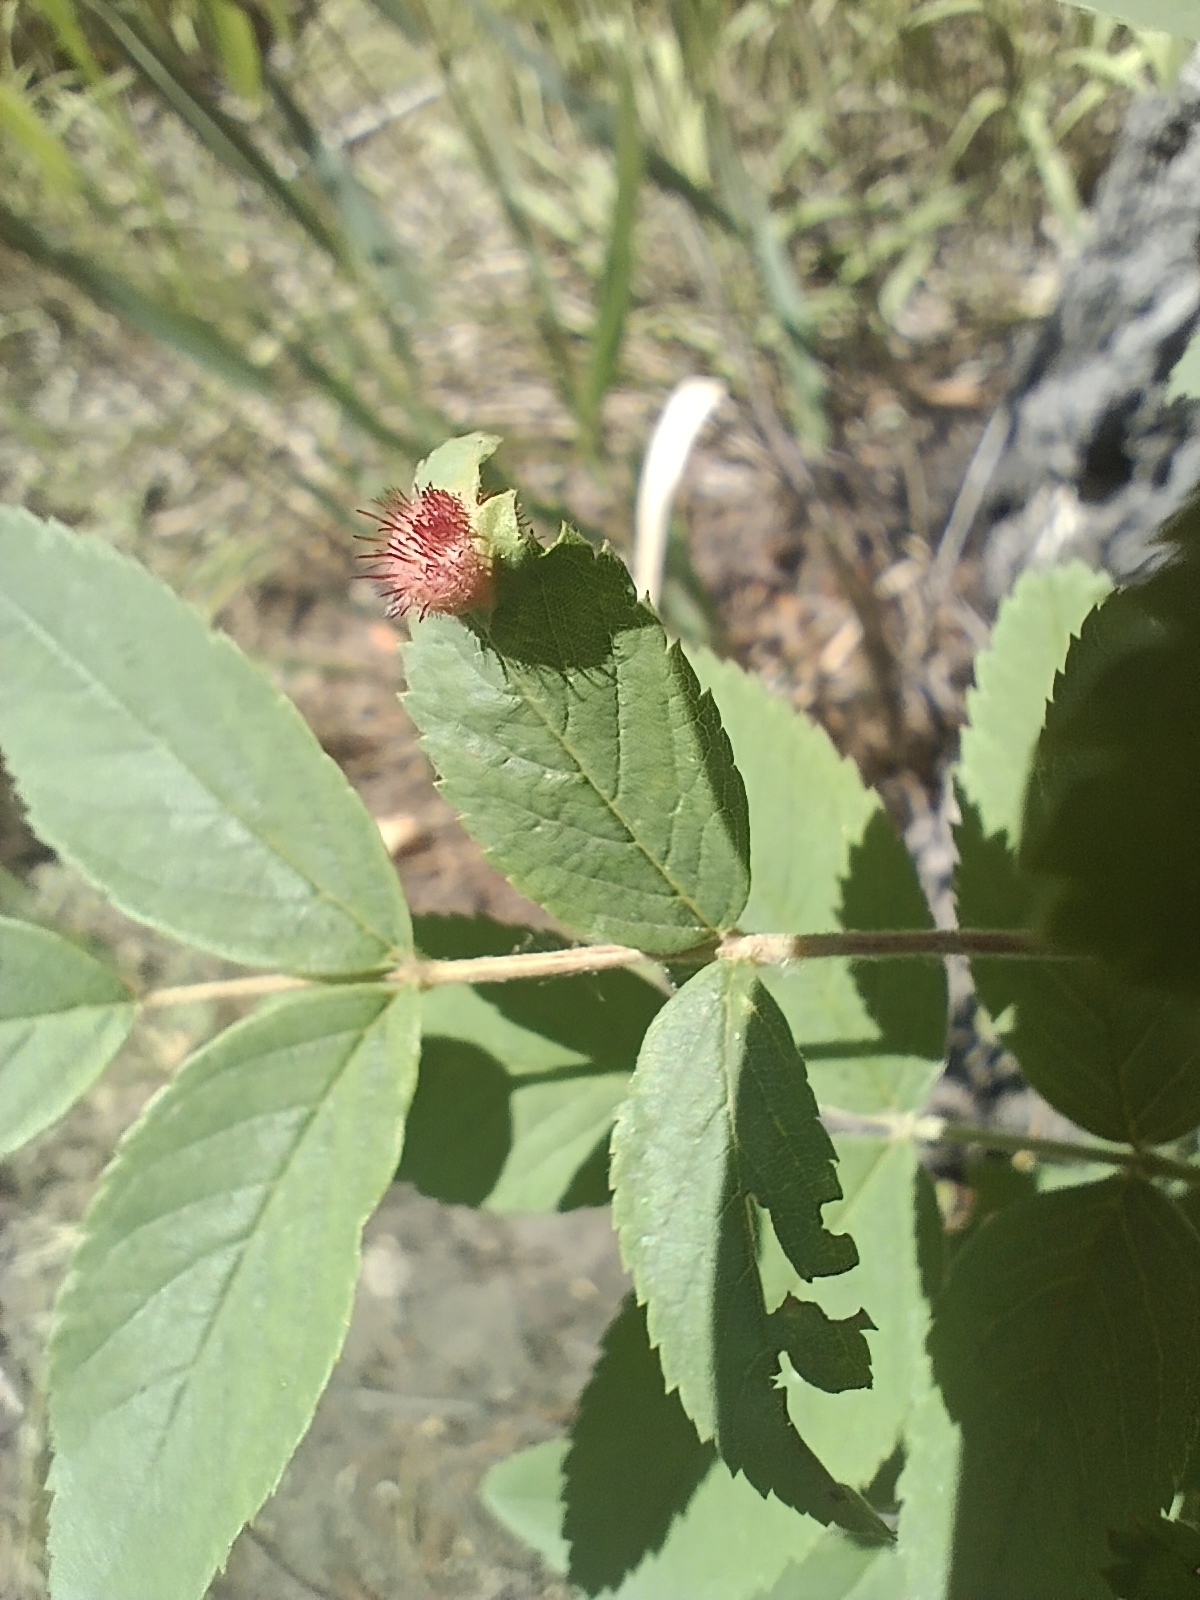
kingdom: Animalia
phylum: Arthropoda
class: Insecta
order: Hymenoptera
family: Cynipidae
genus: Diplolepis
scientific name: Diplolepis mayri
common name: Gall wasp
